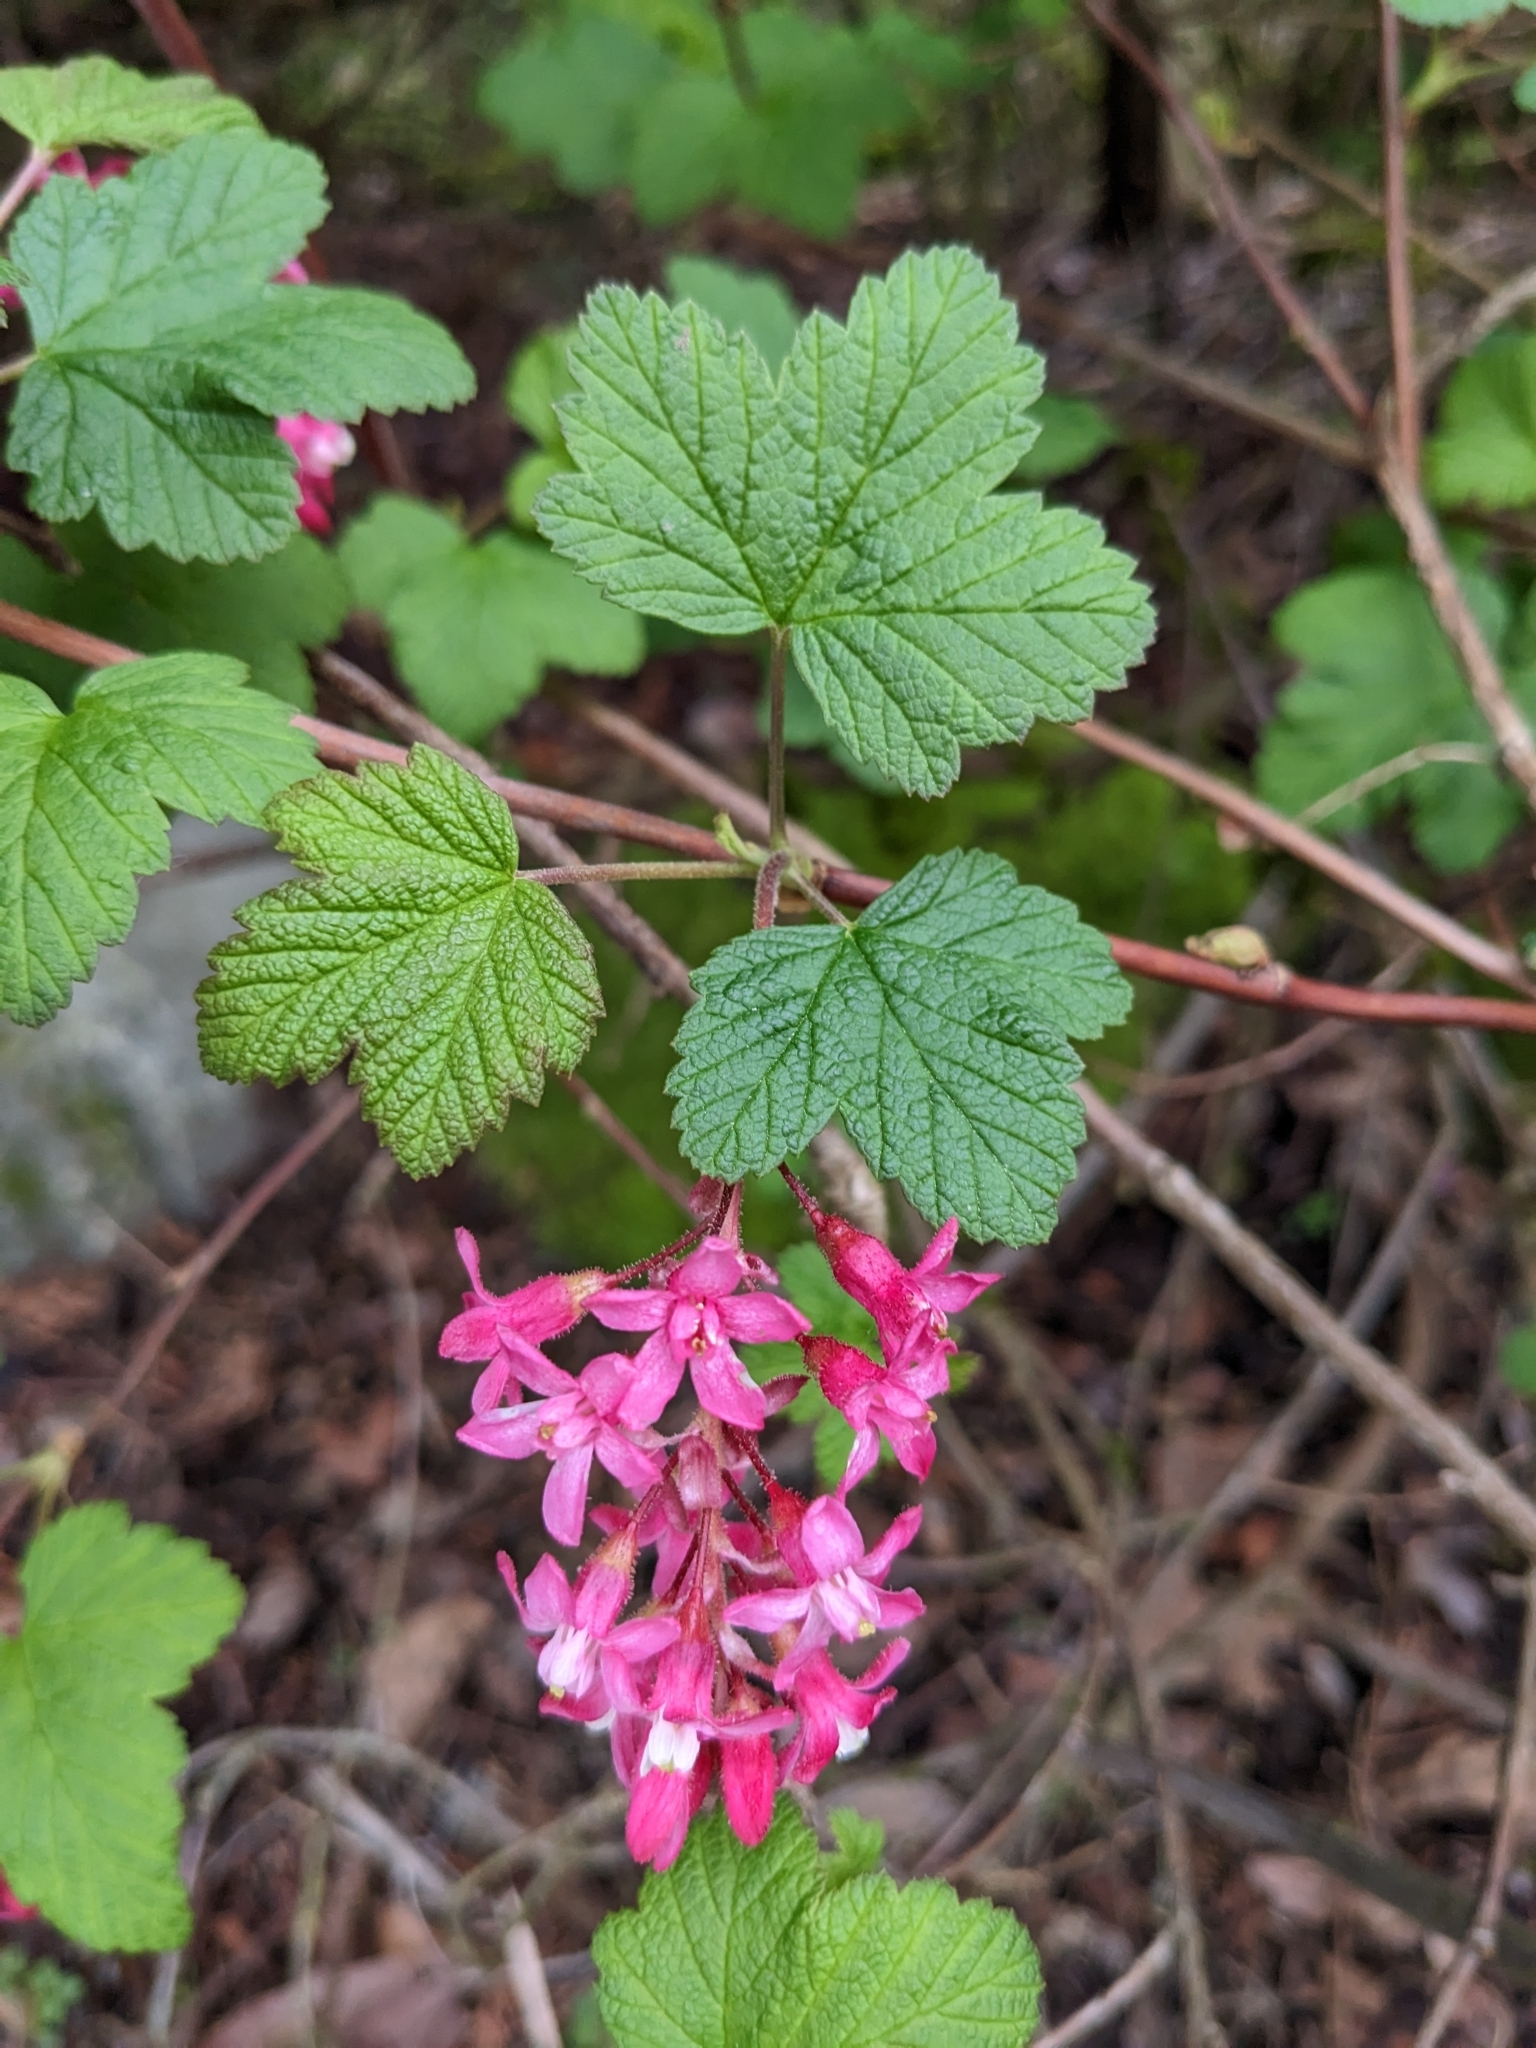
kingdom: Plantae
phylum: Tracheophyta
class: Magnoliopsida
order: Saxifragales
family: Grossulariaceae
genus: Ribes
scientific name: Ribes sanguineum
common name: Flowering currant
